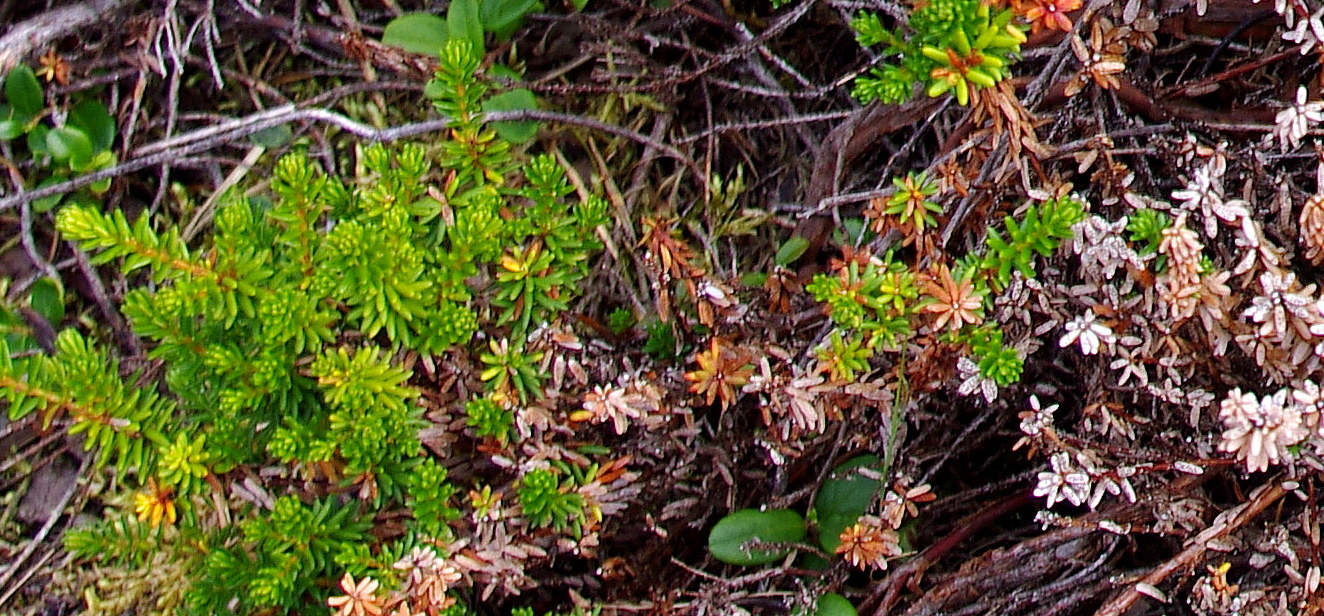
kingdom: Plantae
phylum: Tracheophyta
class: Magnoliopsida
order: Ericales
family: Ericaceae
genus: Empetrum
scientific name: Empetrum nigrum
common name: Black crowberry
